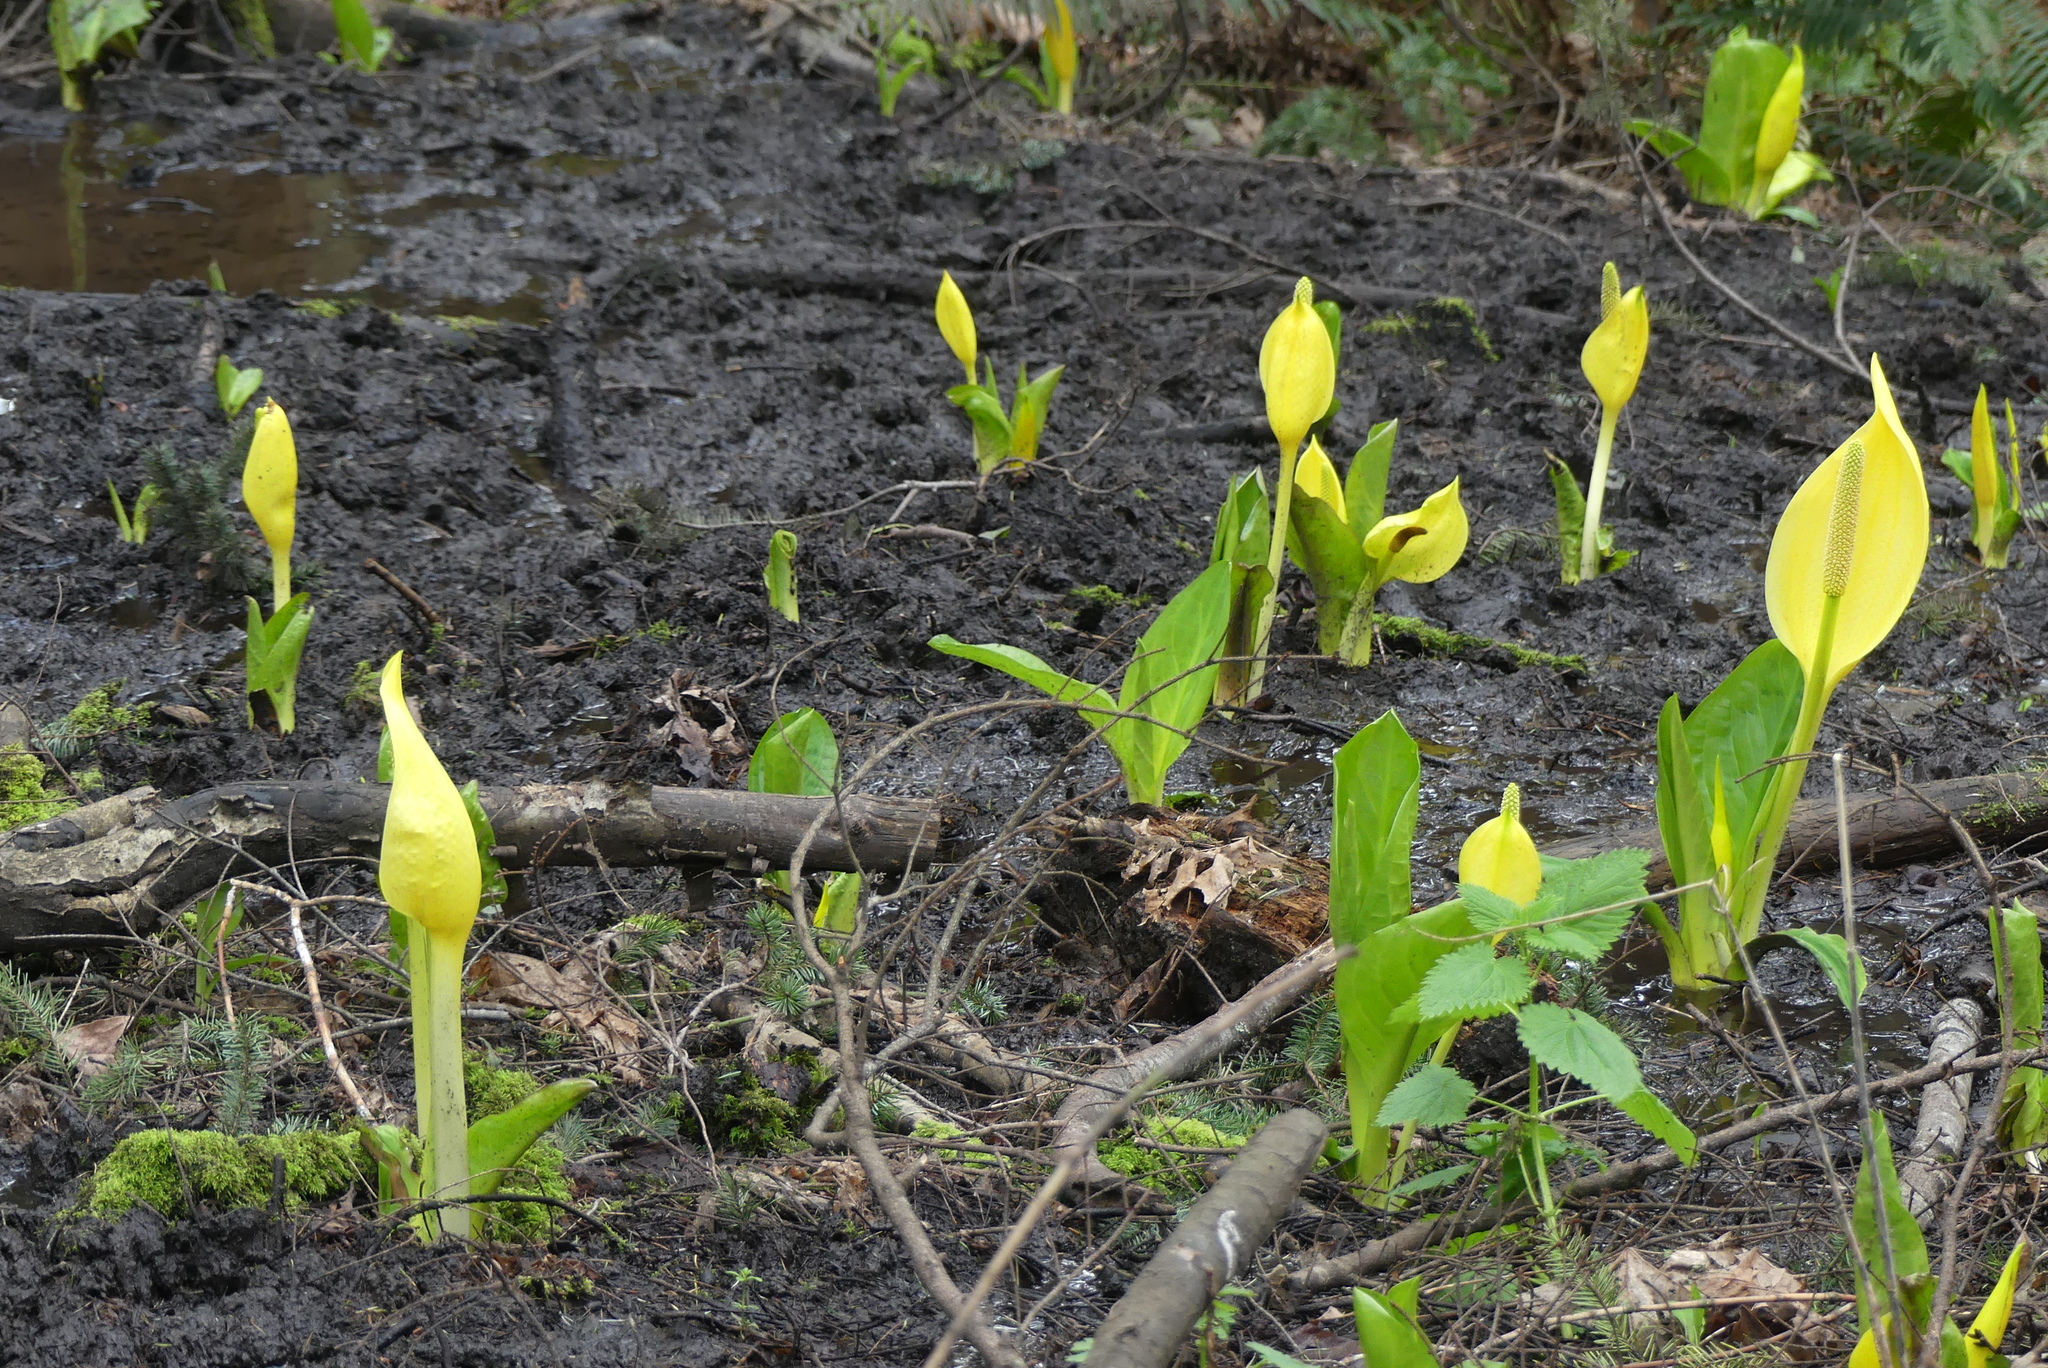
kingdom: Plantae
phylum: Tracheophyta
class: Liliopsida
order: Alismatales
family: Araceae
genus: Lysichiton
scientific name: Lysichiton americanus
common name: American skunk cabbage
